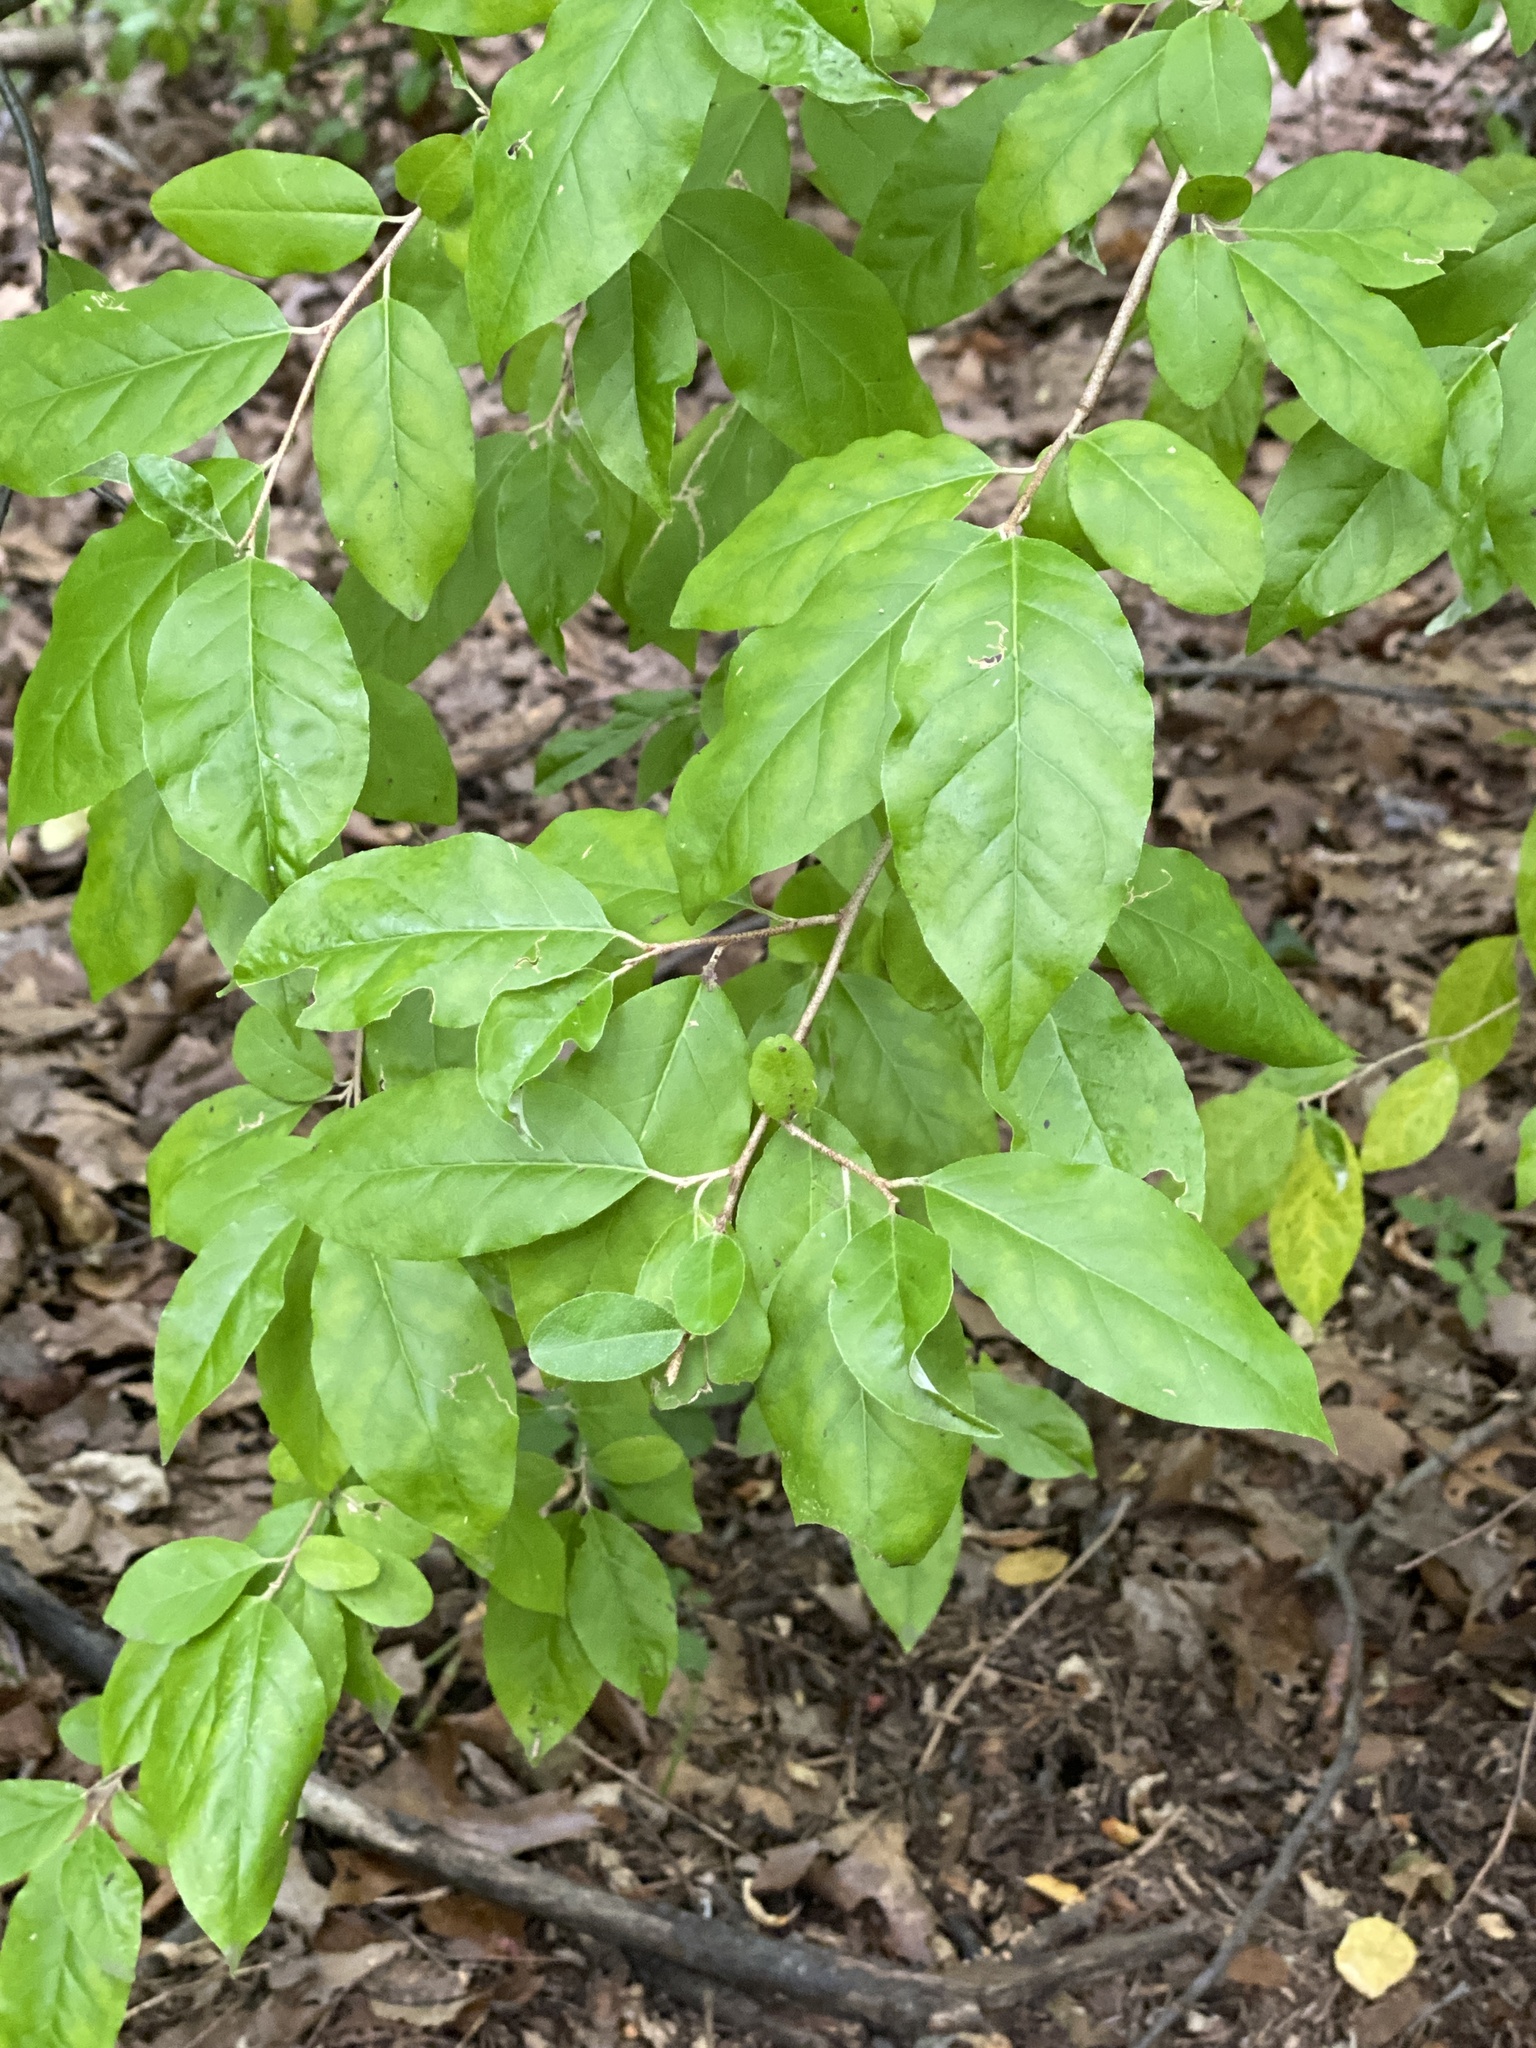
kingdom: Plantae
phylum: Tracheophyta
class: Magnoliopsida
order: Rosales
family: Elaeagnaceae
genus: Elaeagnus
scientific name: Elaeagnus umbellata
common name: Autumn olive
